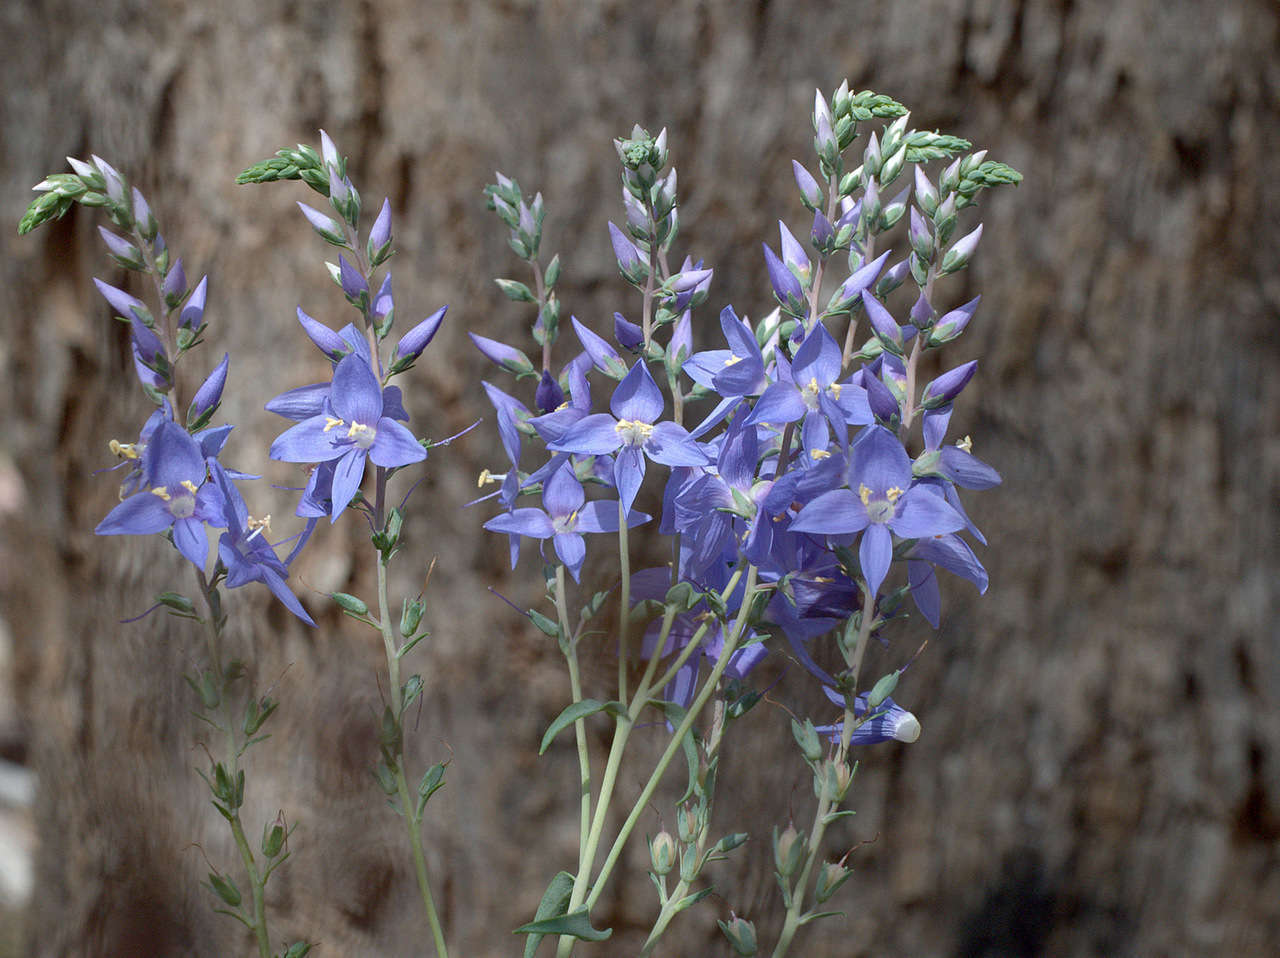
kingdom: Plantae
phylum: Tracheophyta
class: Magnoliopsida
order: Lamiales
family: Plantaginaceae
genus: Veronica
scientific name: Veronica perfoliata
